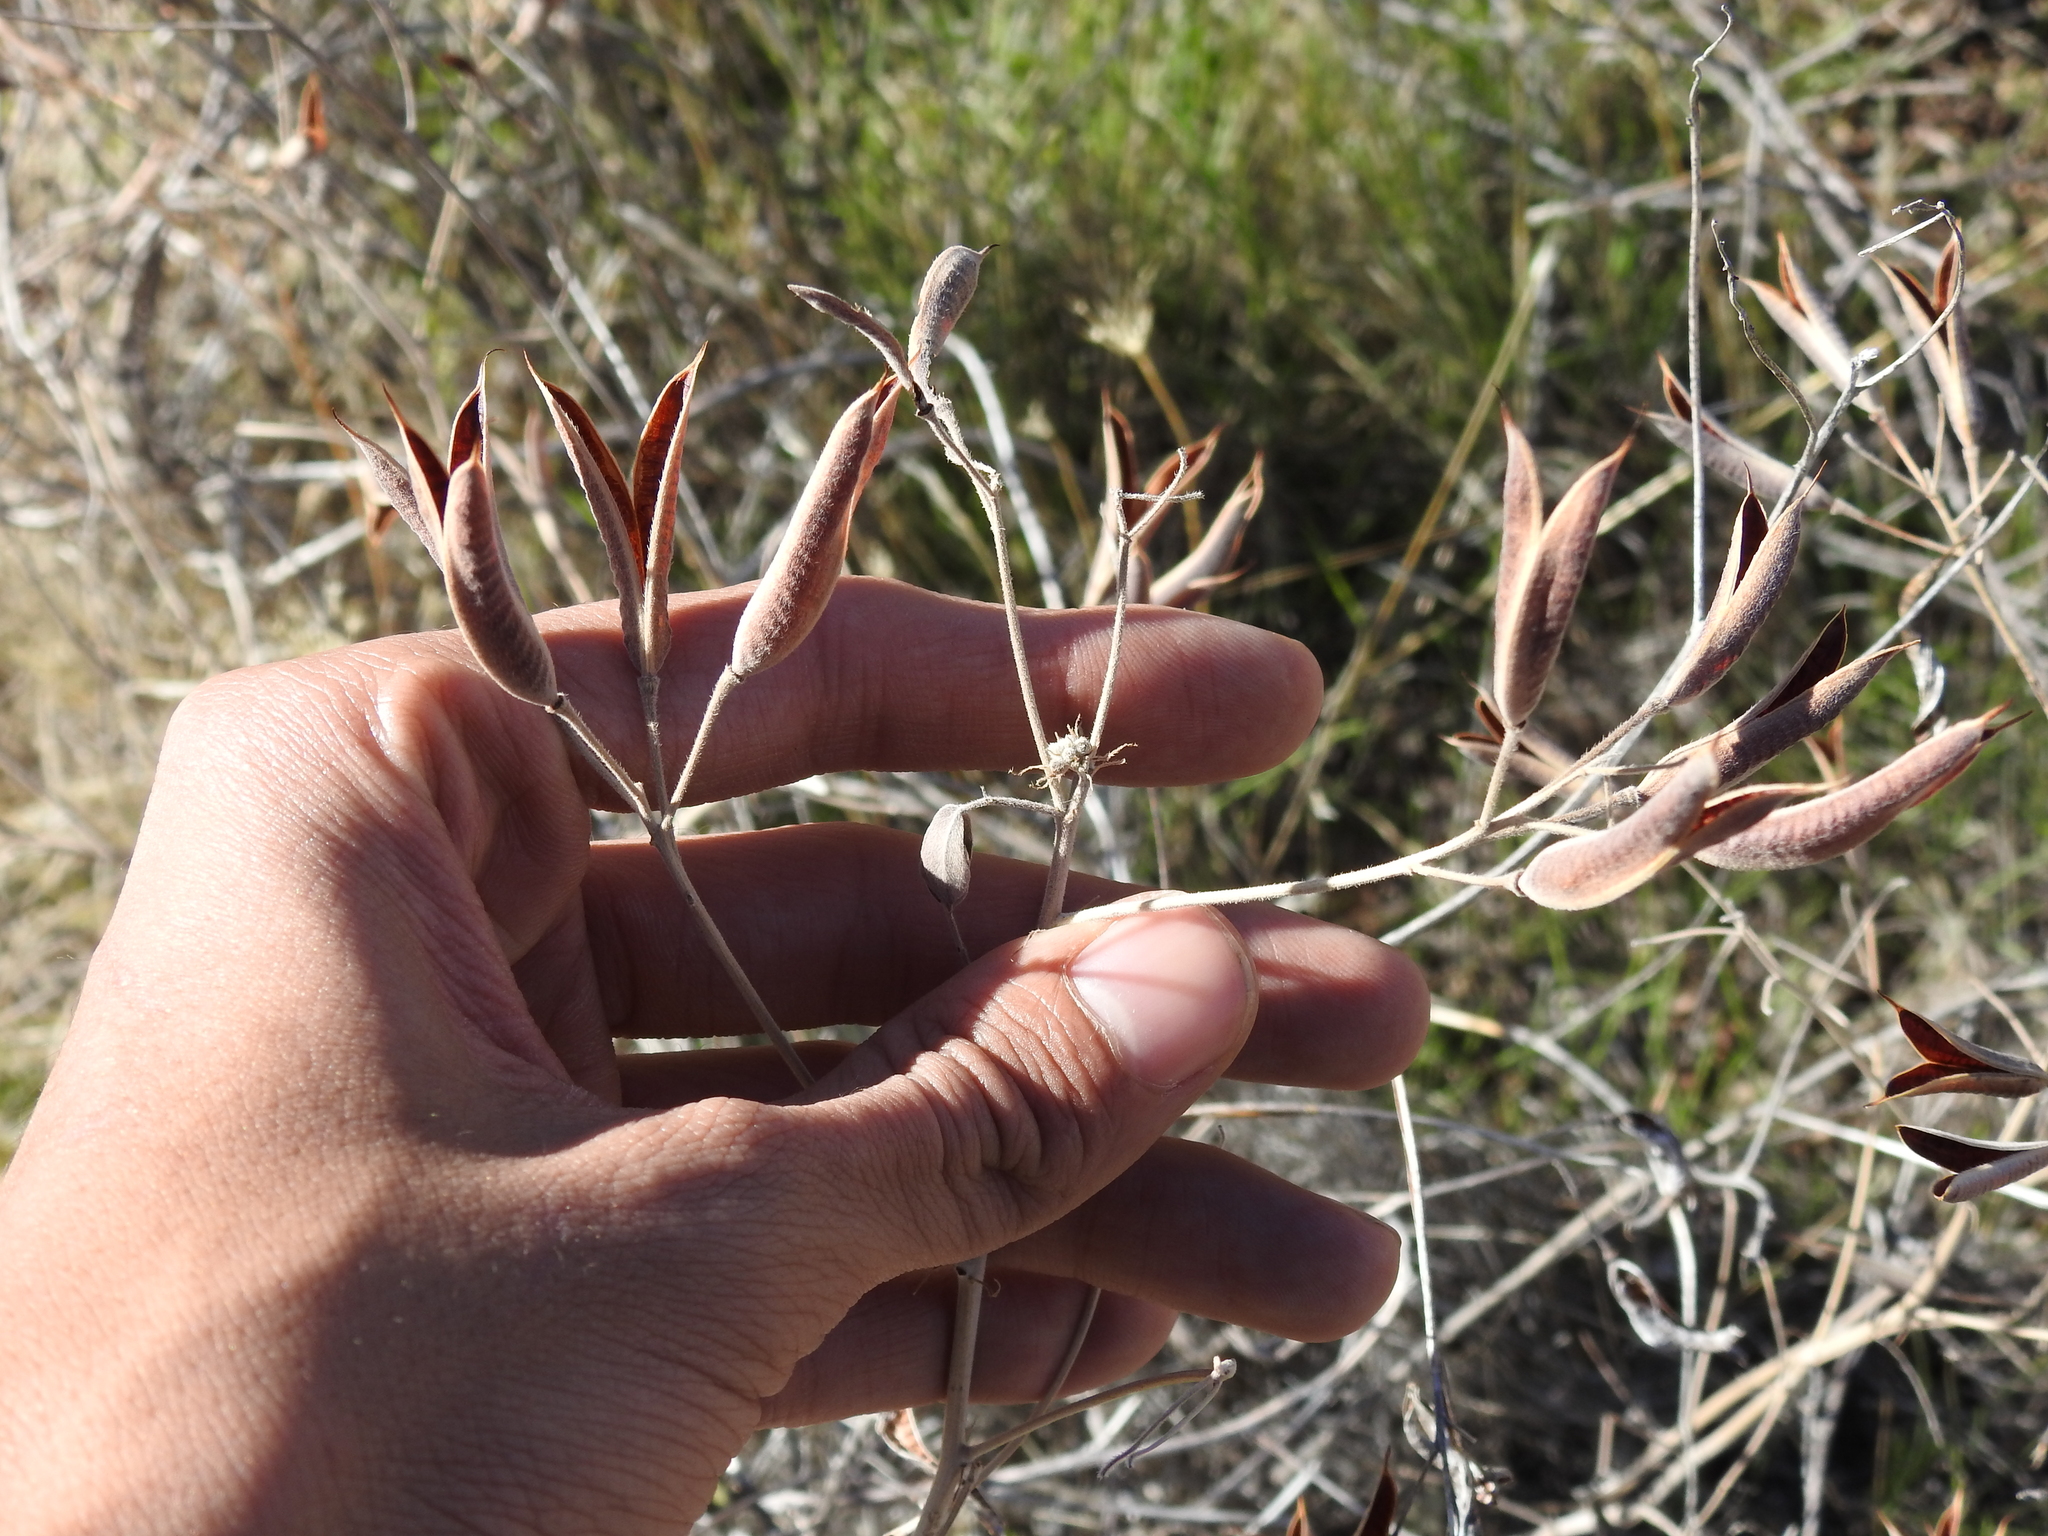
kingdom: Plantae
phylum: Tracheophyta
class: Magnoliopsida
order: Fabales
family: Fabaceae
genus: Senna
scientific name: Senna covesii
